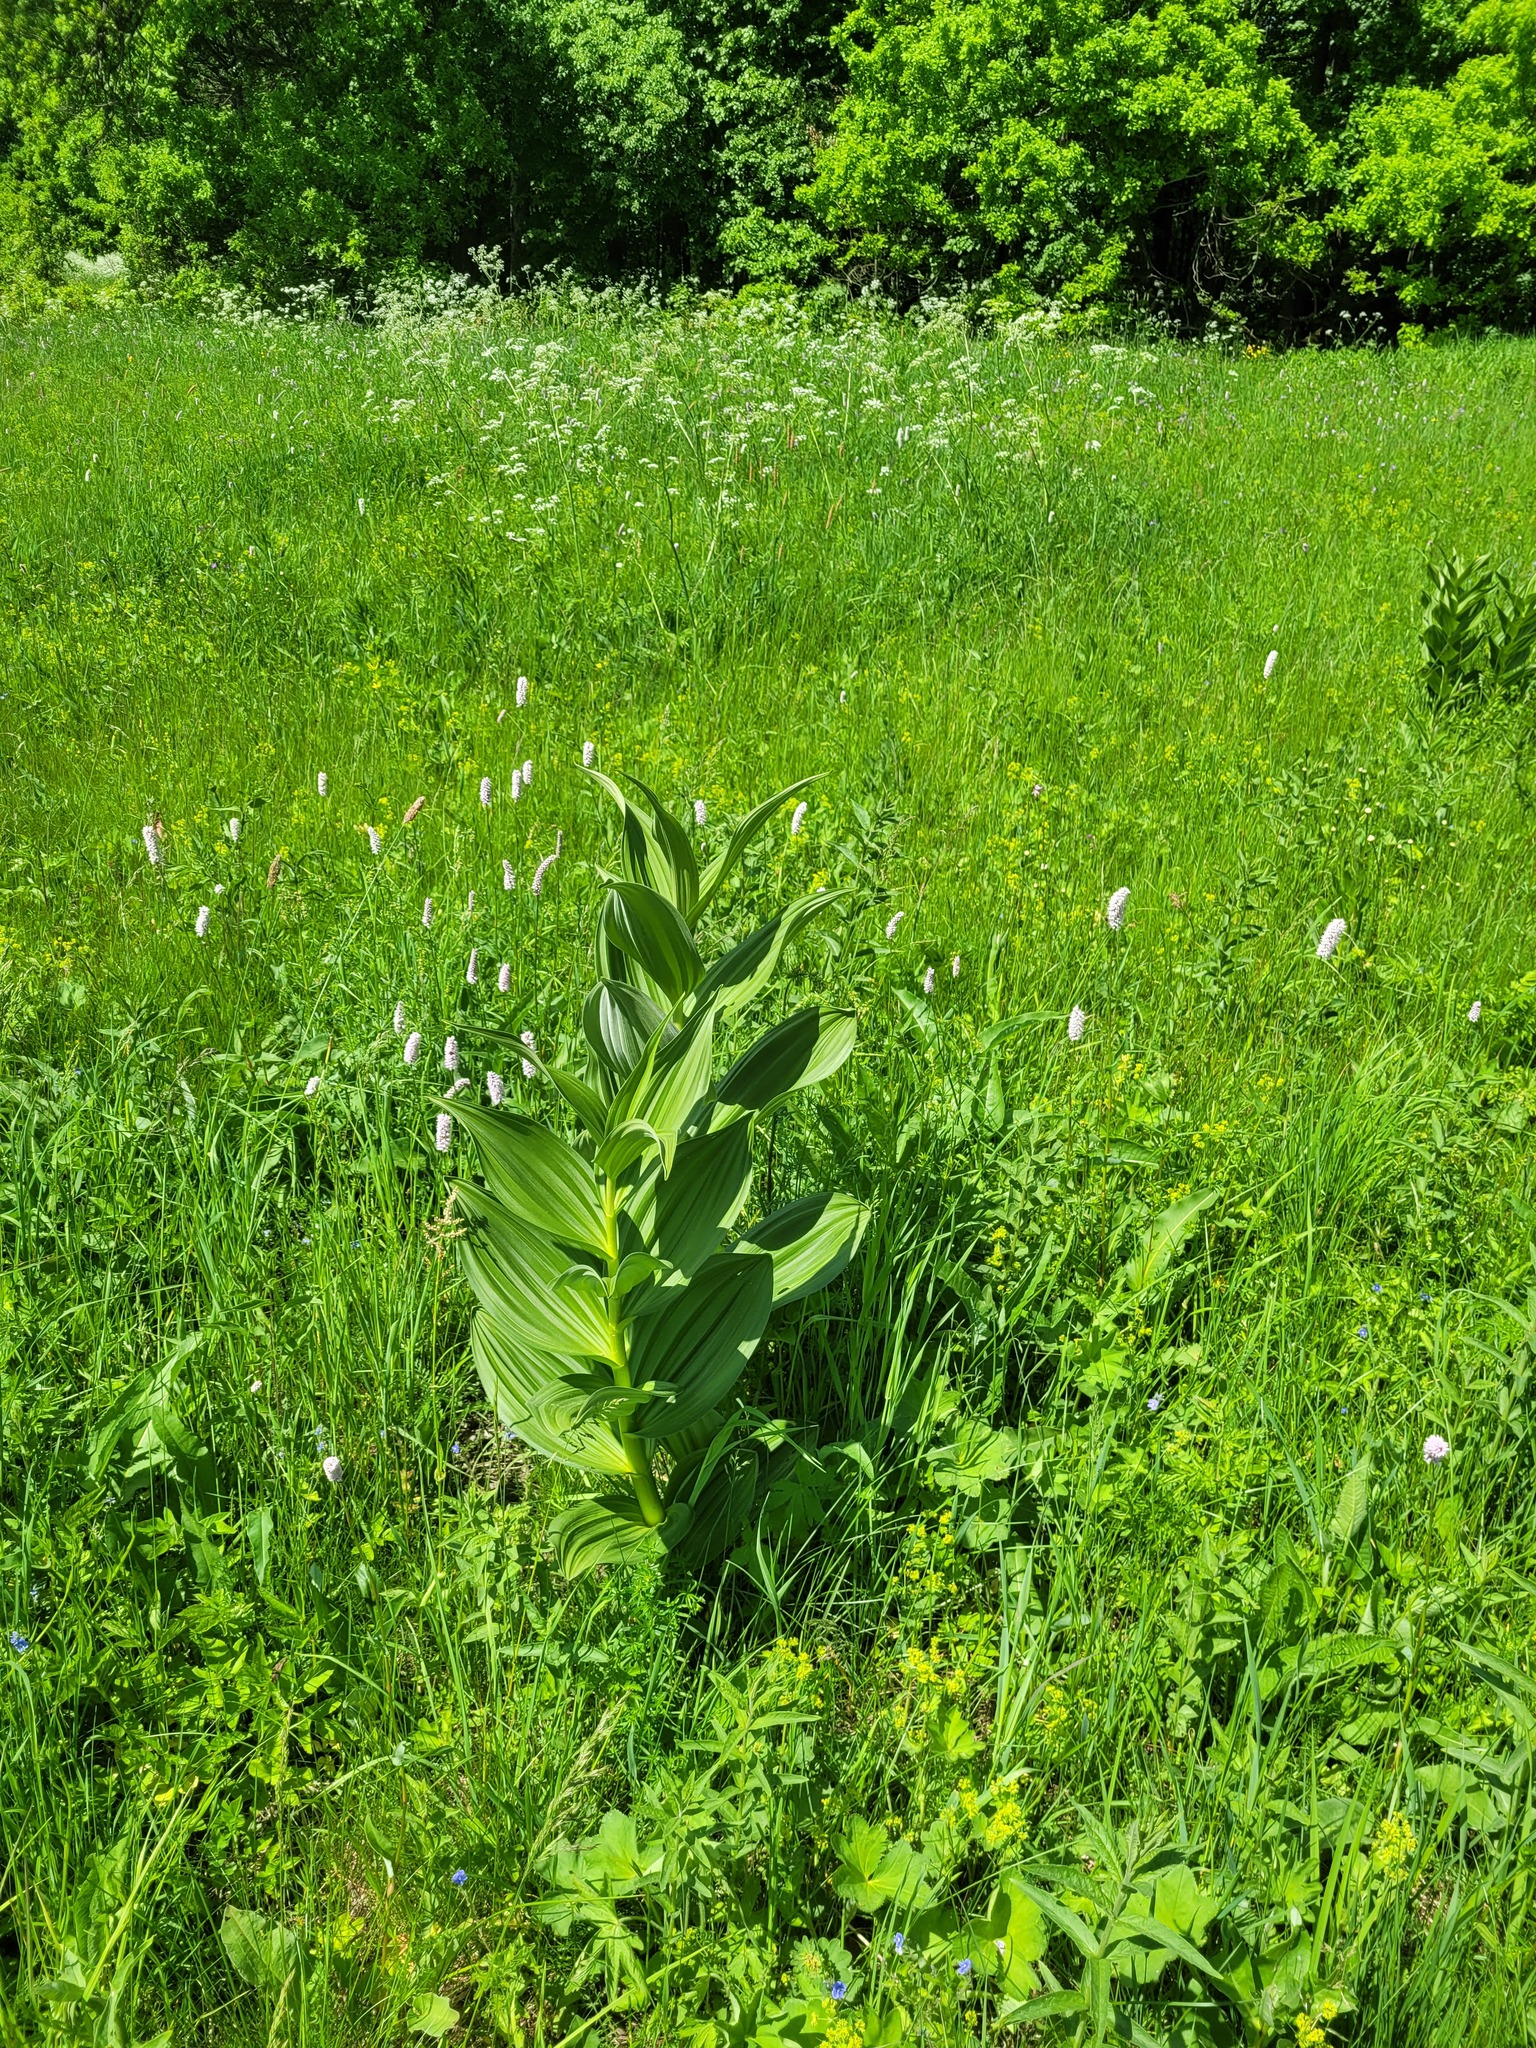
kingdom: Plantae
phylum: Tracheophyta
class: Liliopsida
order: Liliales
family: Melanthiaceae
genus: Veratrum
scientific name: Veratrum lobelianum
